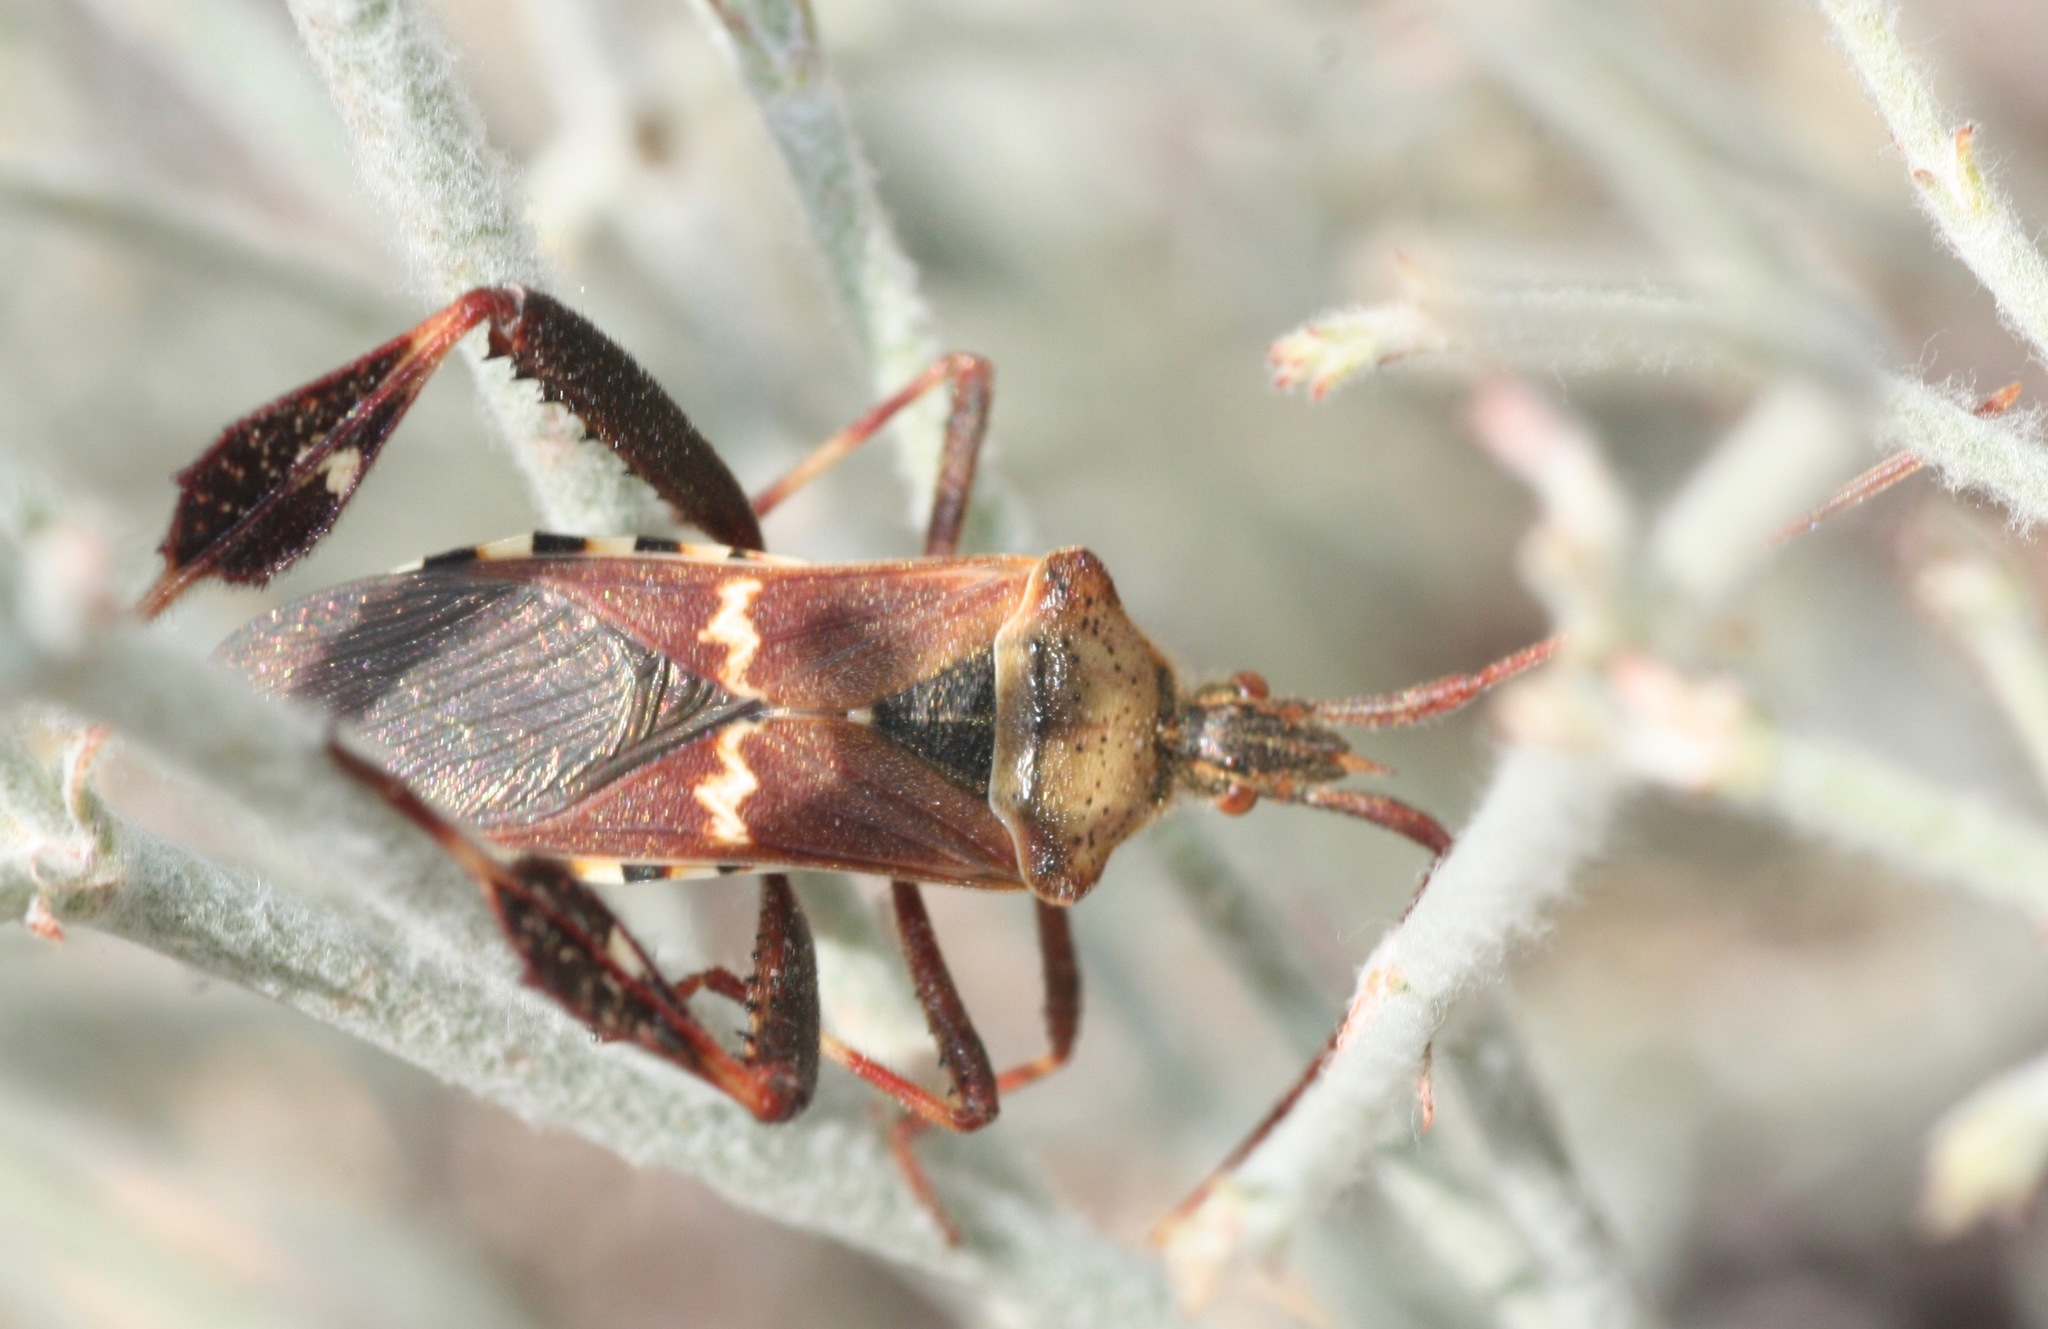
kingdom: Animalia
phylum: Arthropoda
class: Insecta
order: Hemiptera
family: Coreidae
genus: Leptoglossus
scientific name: Leptoglossus clypealis
